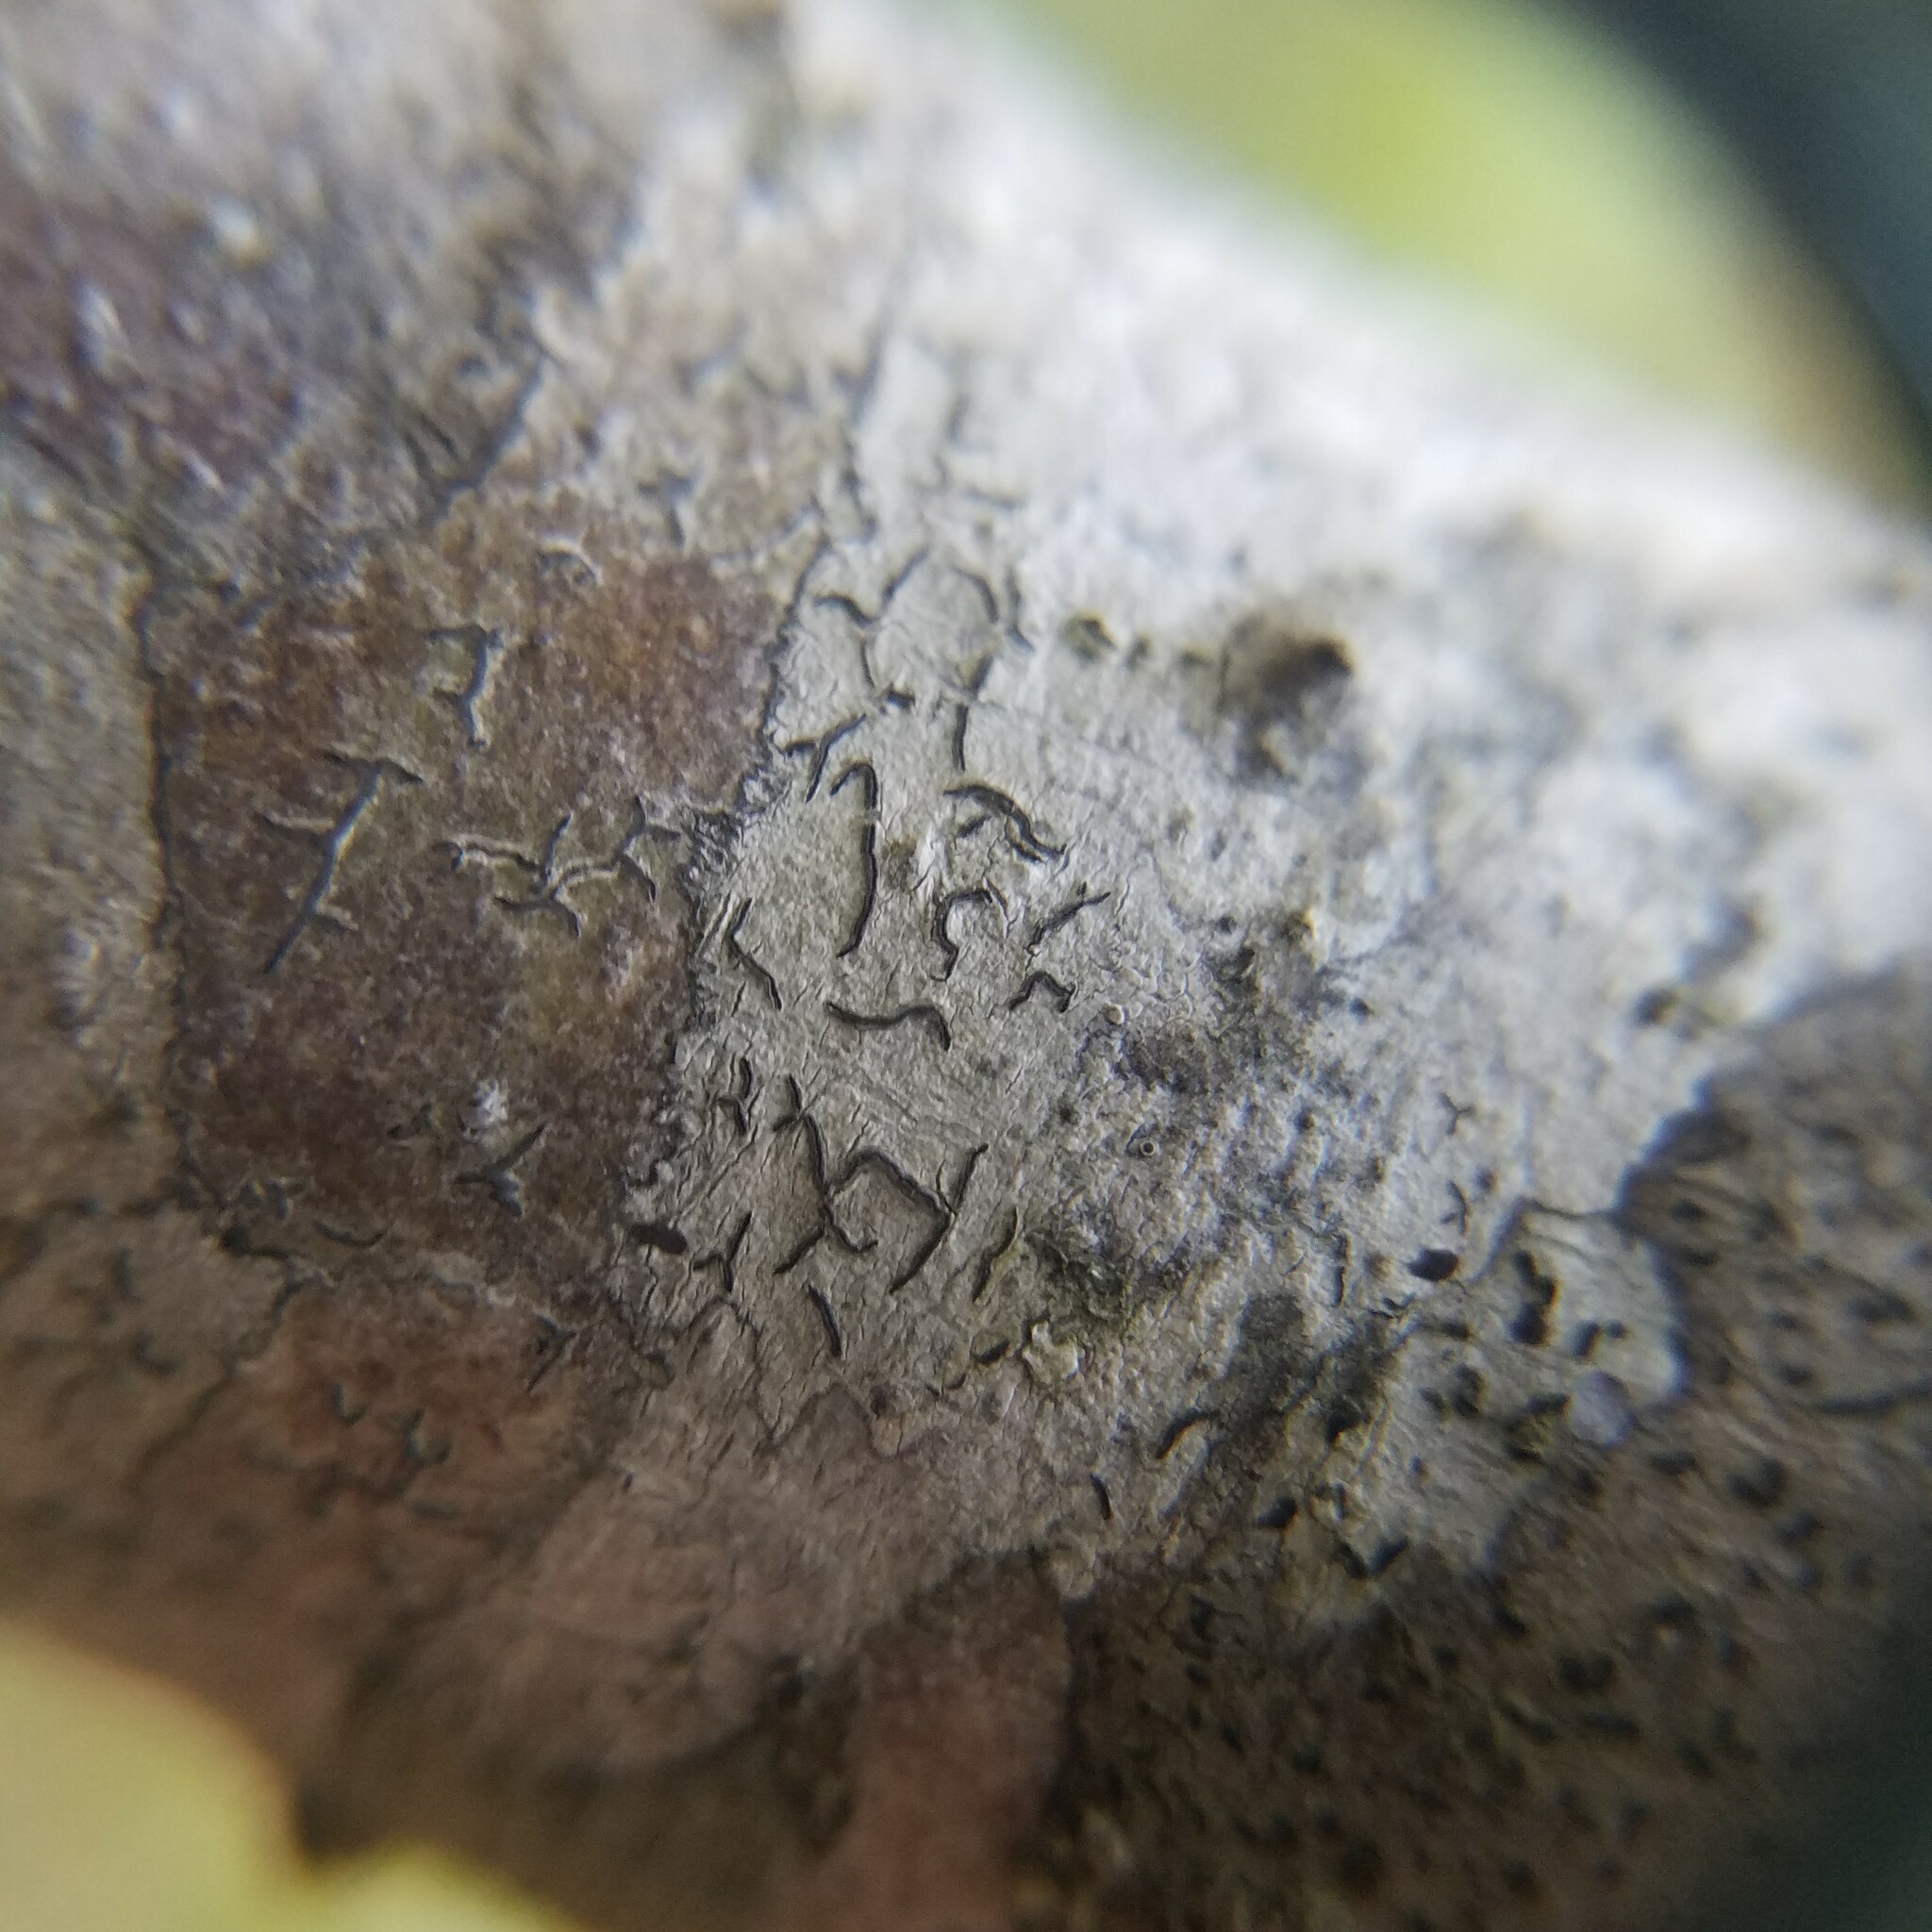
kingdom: Fungi
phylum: Ascomycota
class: Lecanoromycetes
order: Ostropales
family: Graphidaceae
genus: Graphis
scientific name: Graphis
